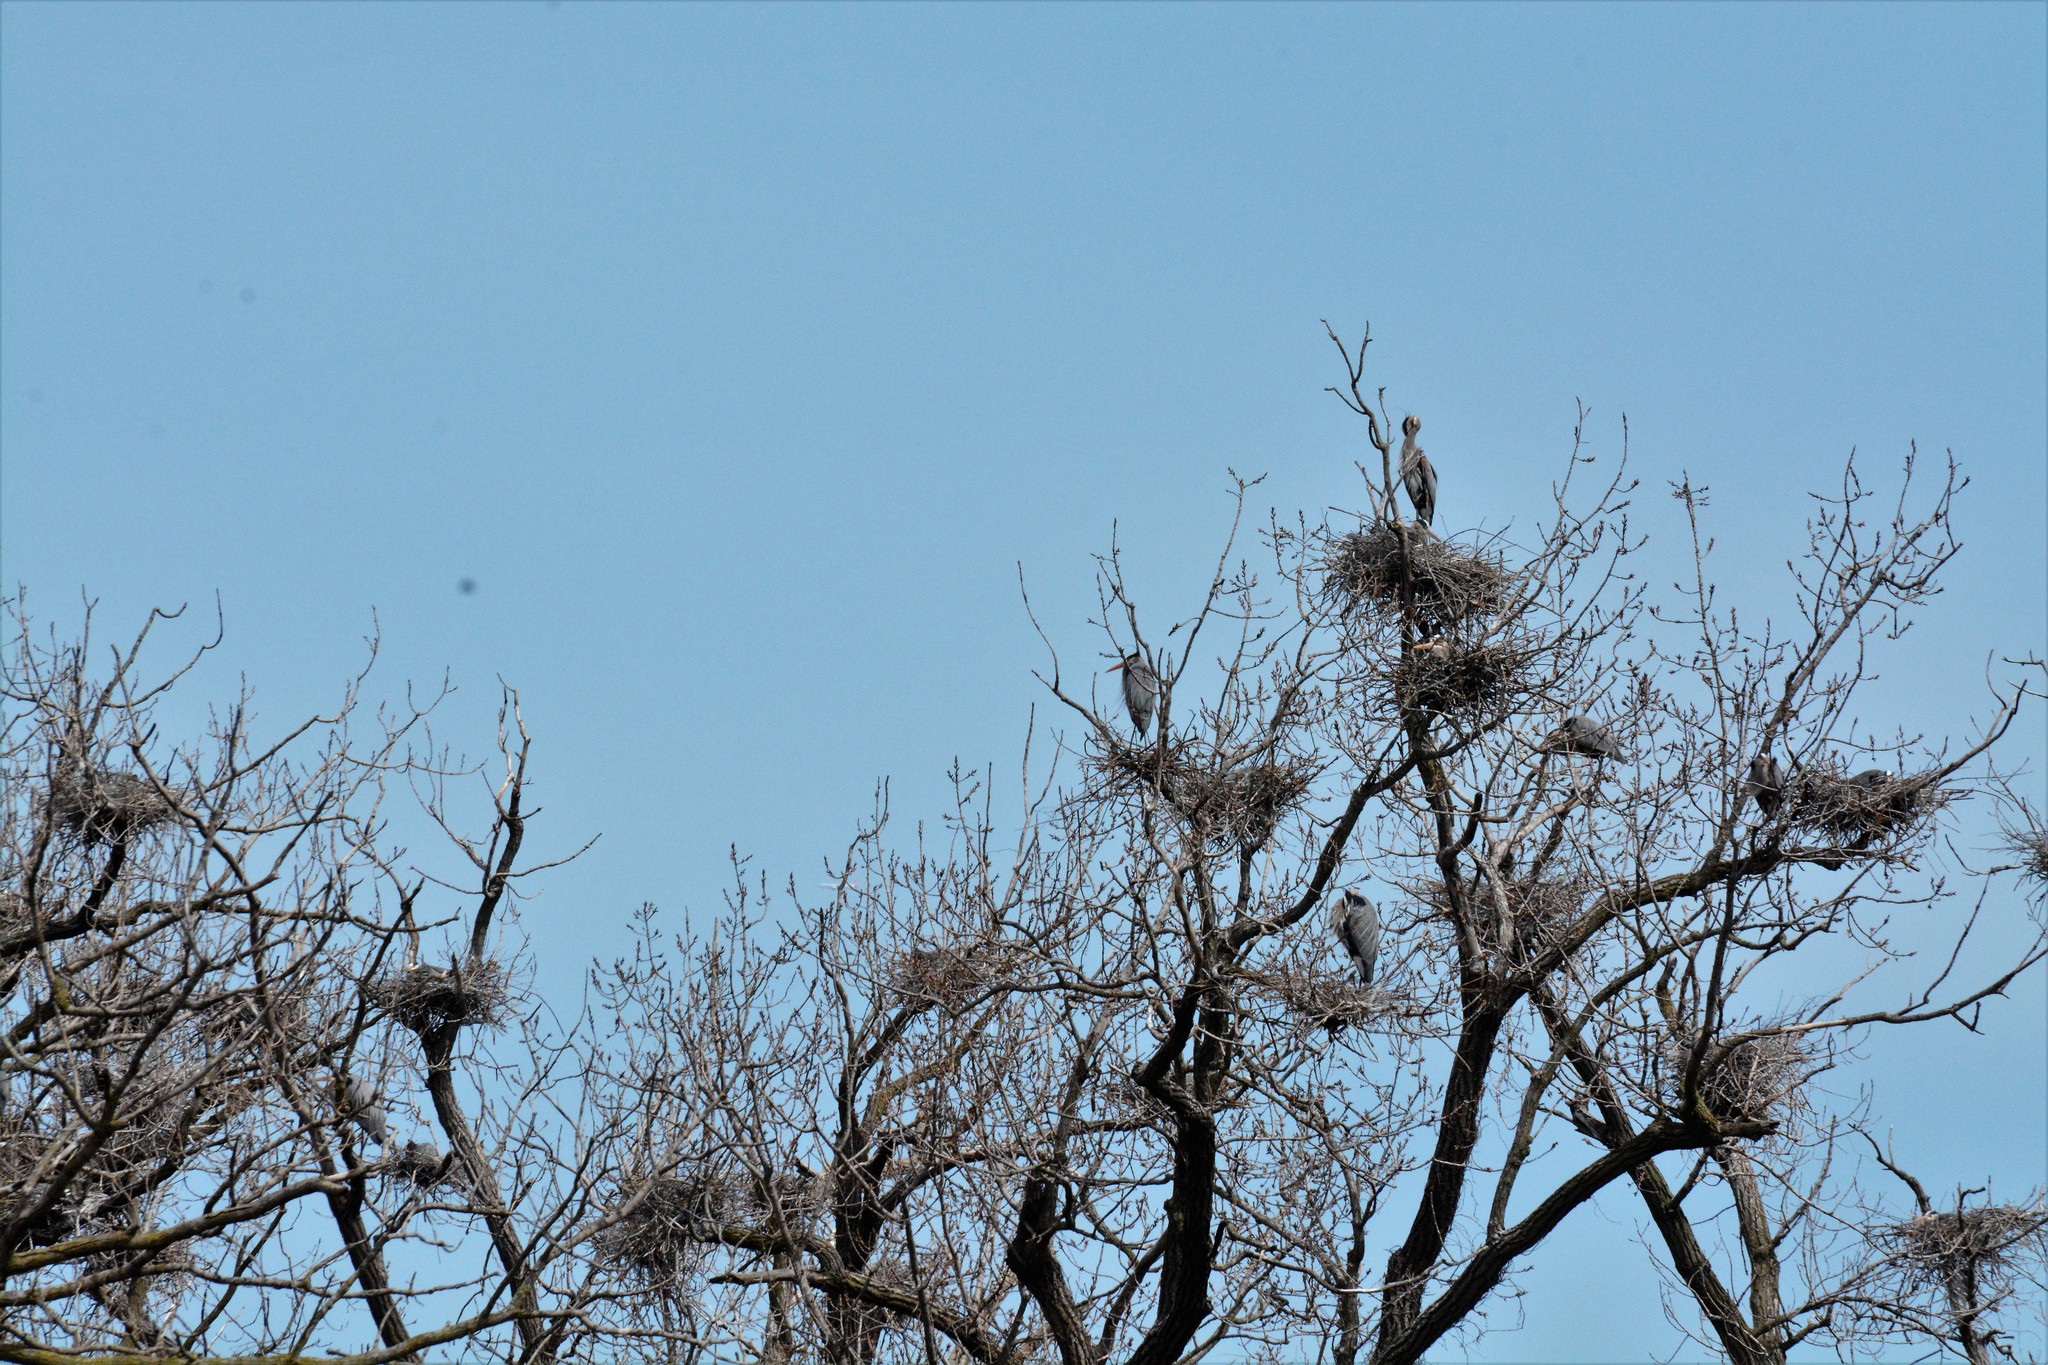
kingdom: Animalia
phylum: Chordata
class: Aves
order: Pelecaniformes
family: Ardeidae
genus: Ardea
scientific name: Ardea herodias
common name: Great blue heron
